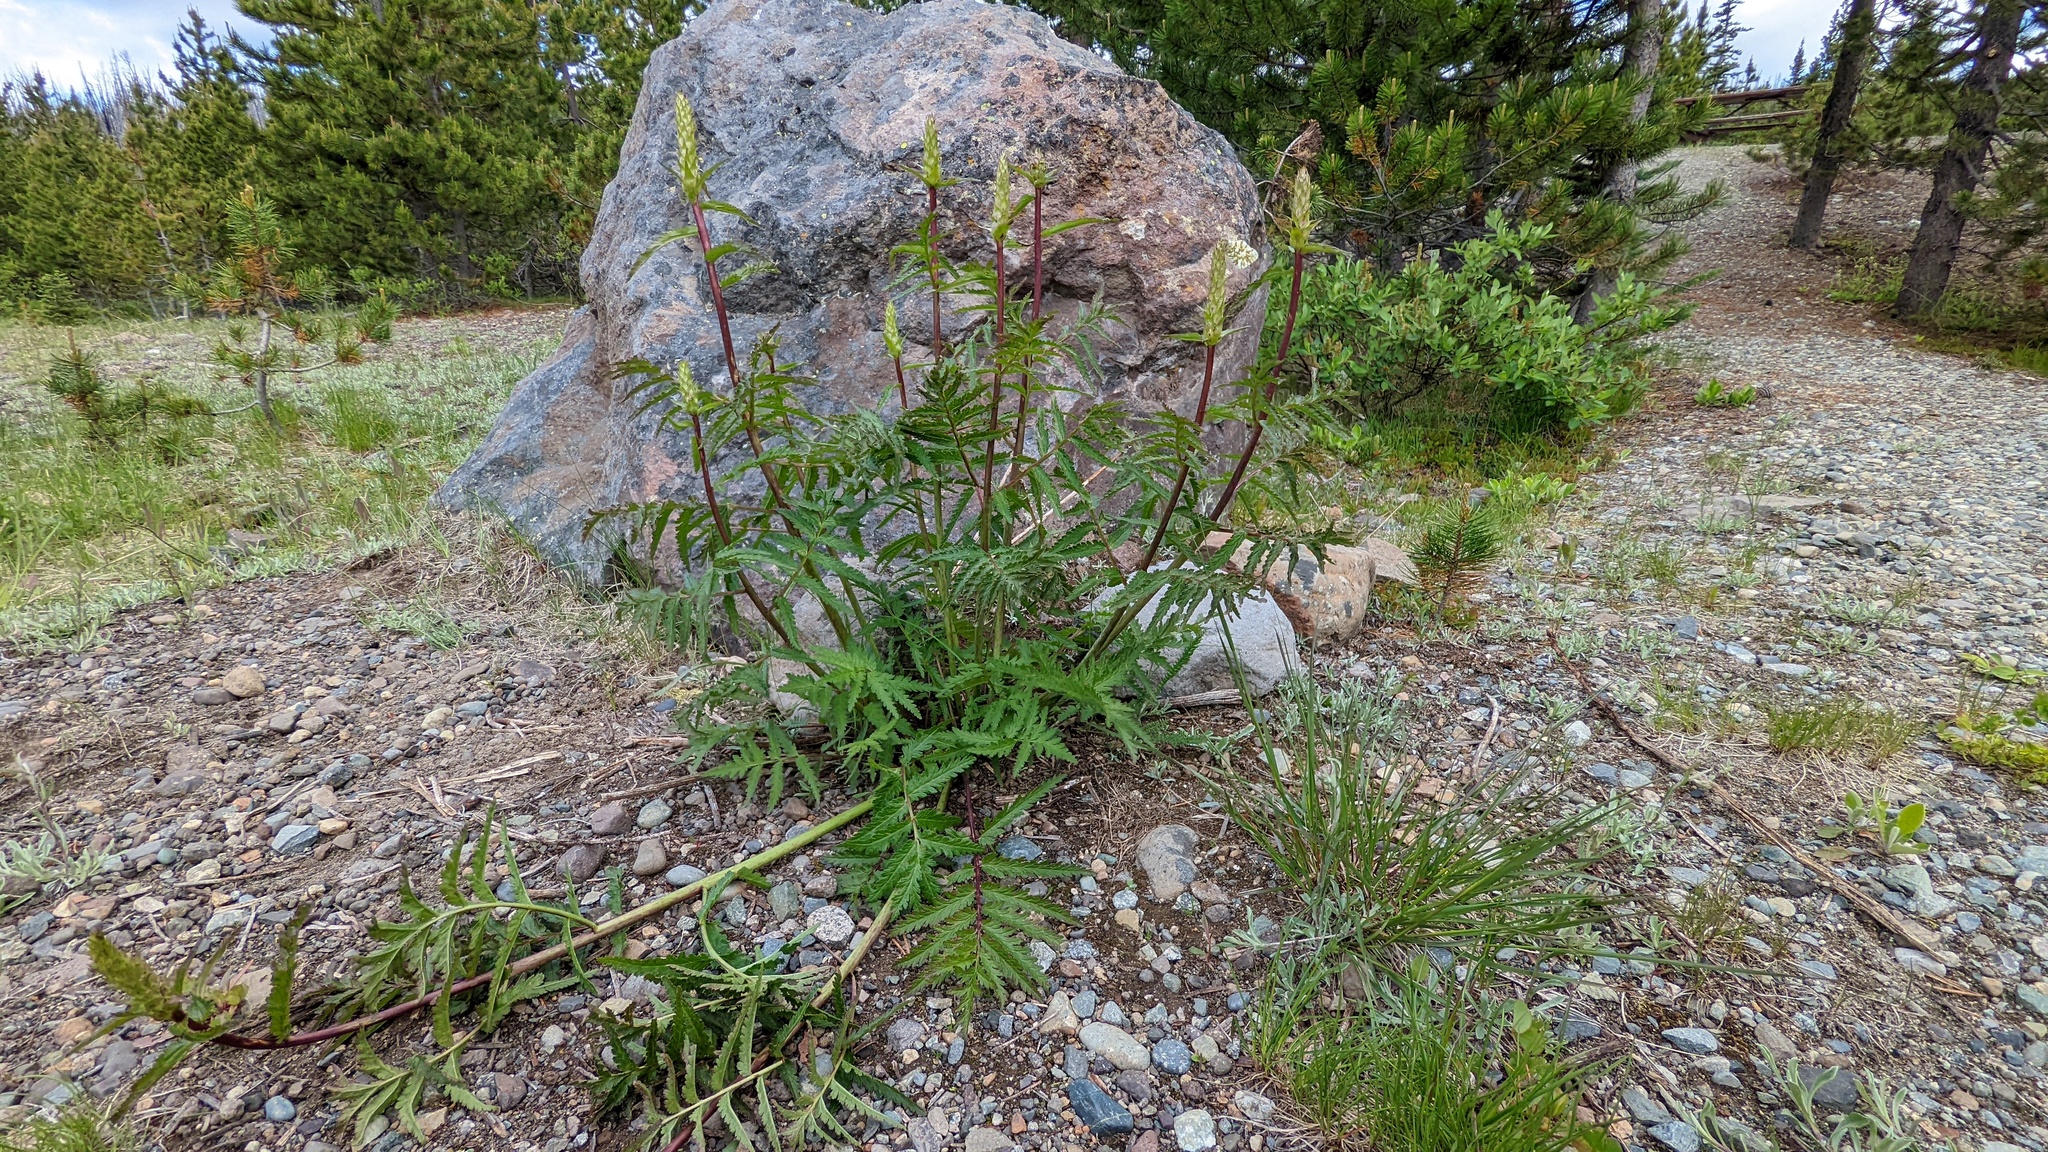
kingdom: Plantae
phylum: Tracheophyta
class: Magnoliopsida
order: Lamiales
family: Orobanchaceae
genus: Pedicularis
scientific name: Pedicularis bracteosa
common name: Bracted lousewort
